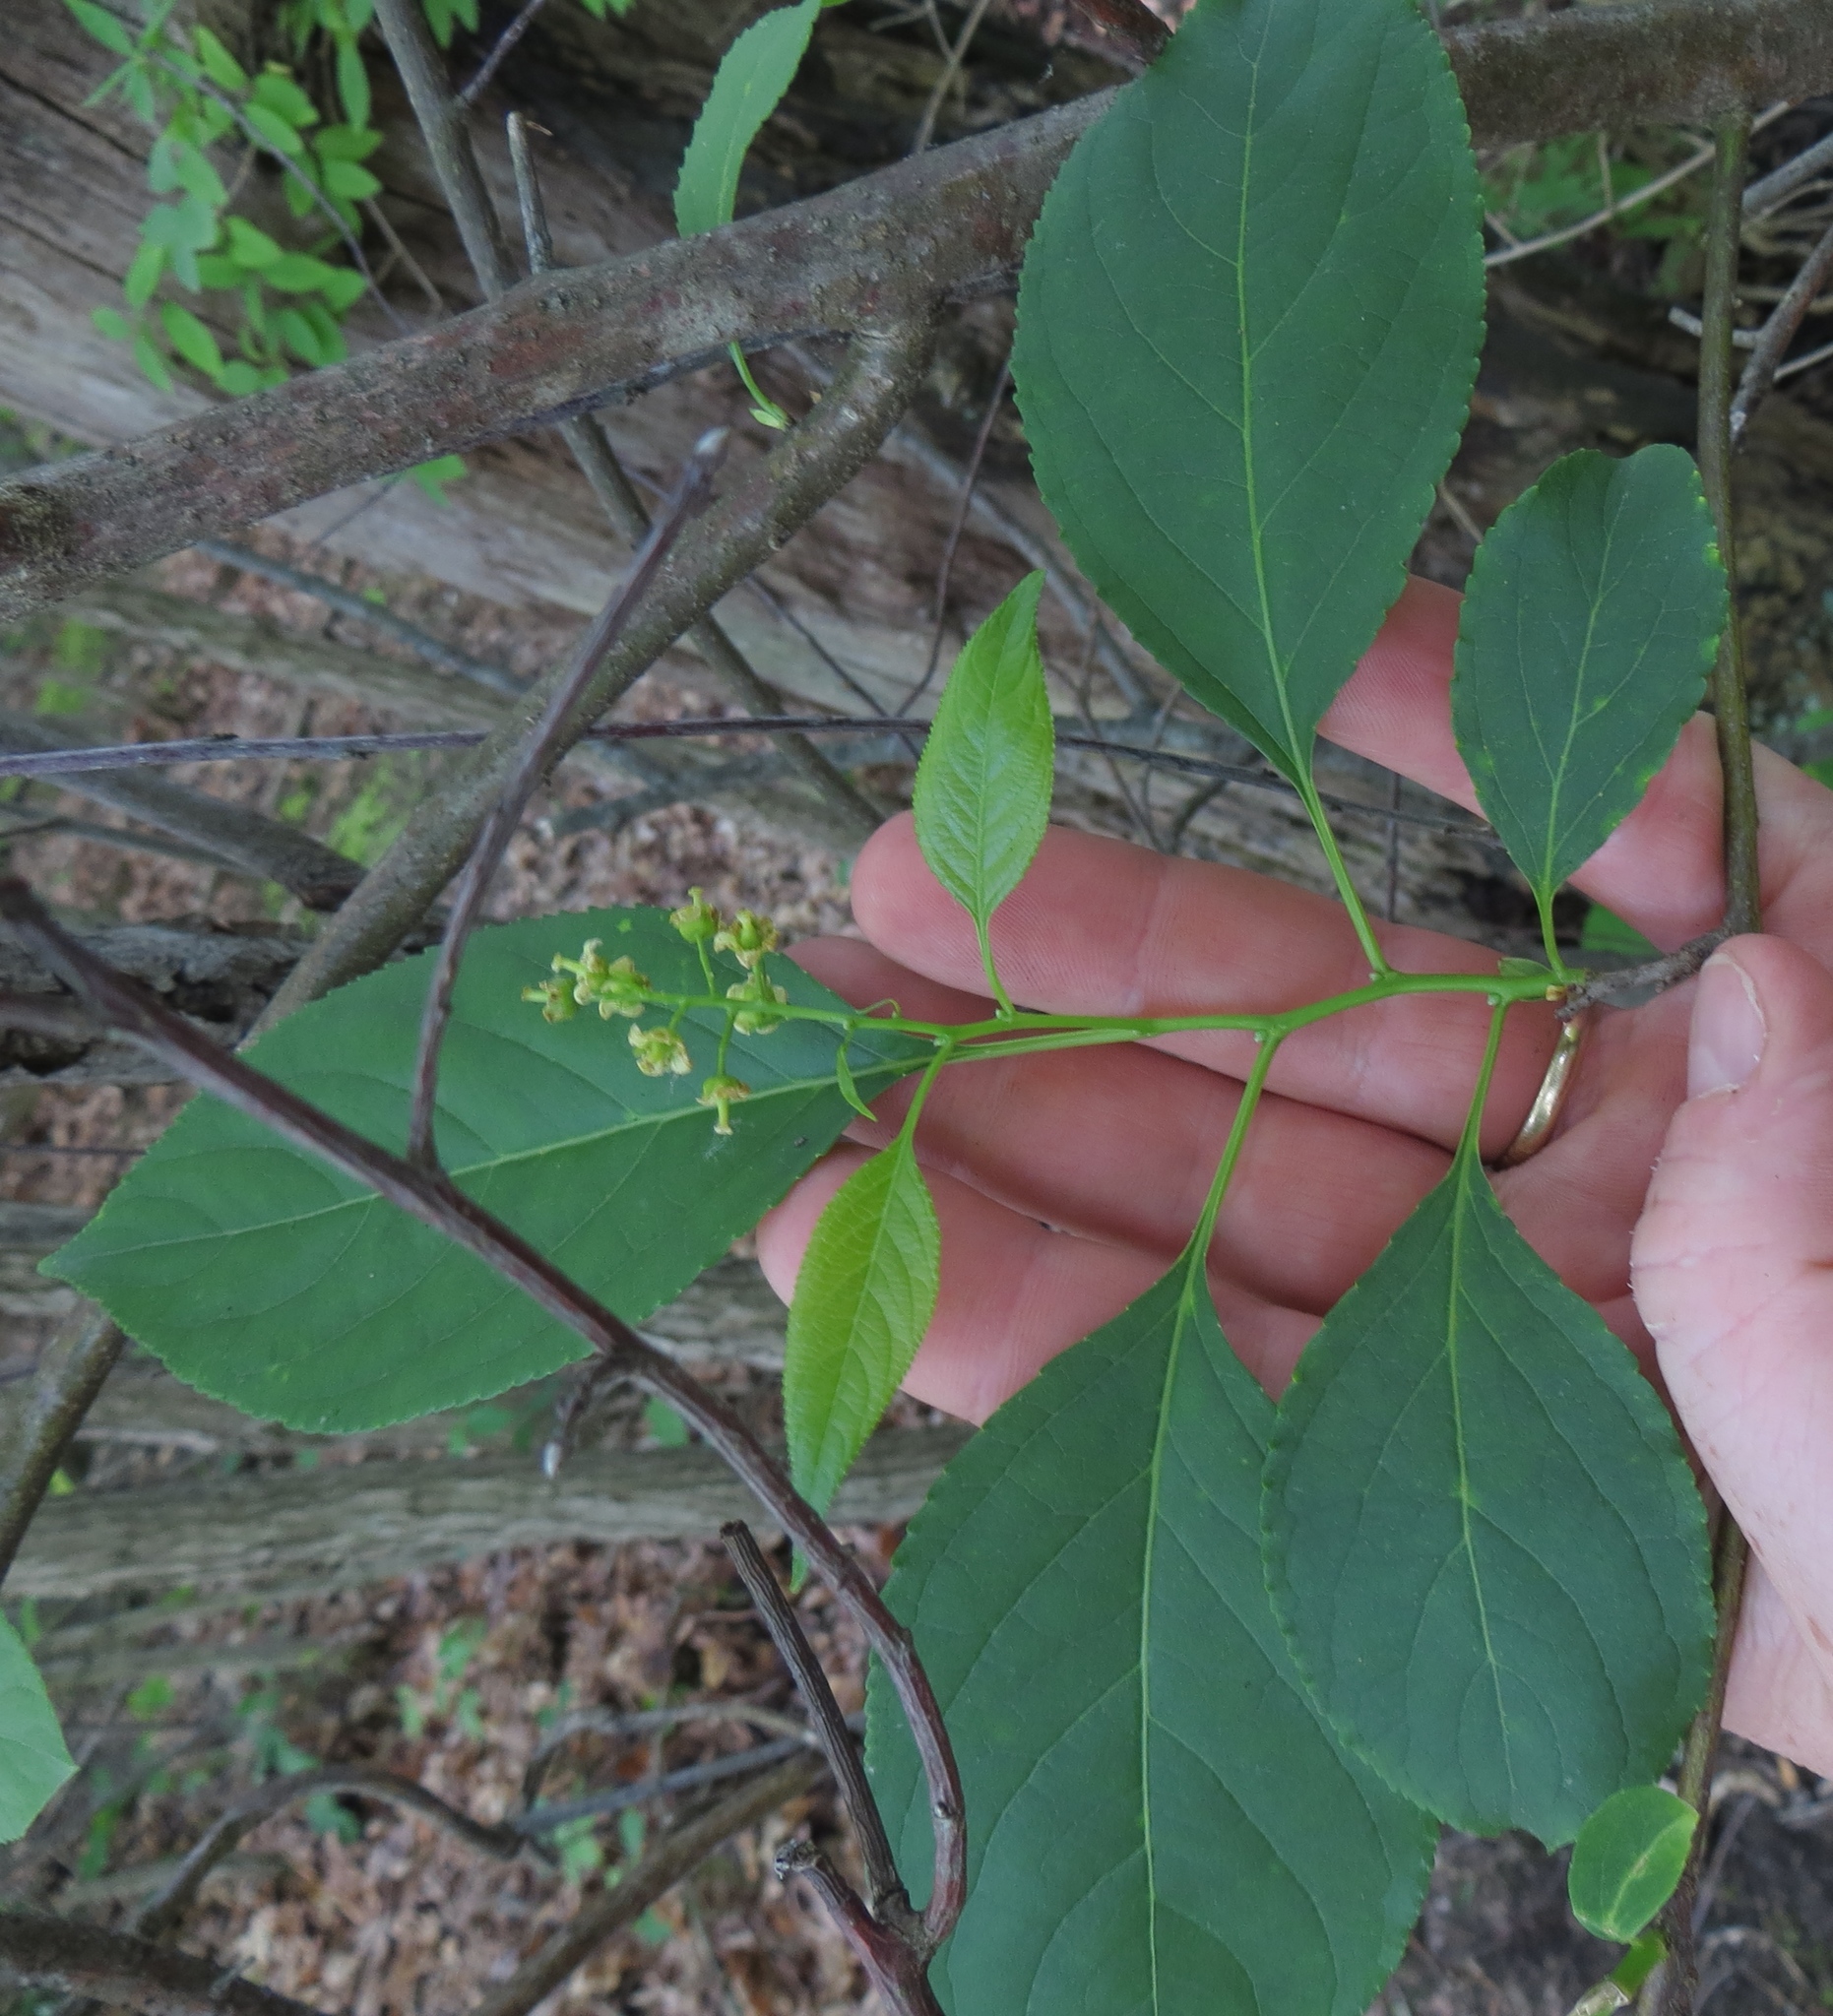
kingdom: Plantae
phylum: Tracheophyta
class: Magnoliopsida
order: Celastrales
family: Celastraceae
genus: Celastrus
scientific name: Celastrus scandens
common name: American bittersweet
